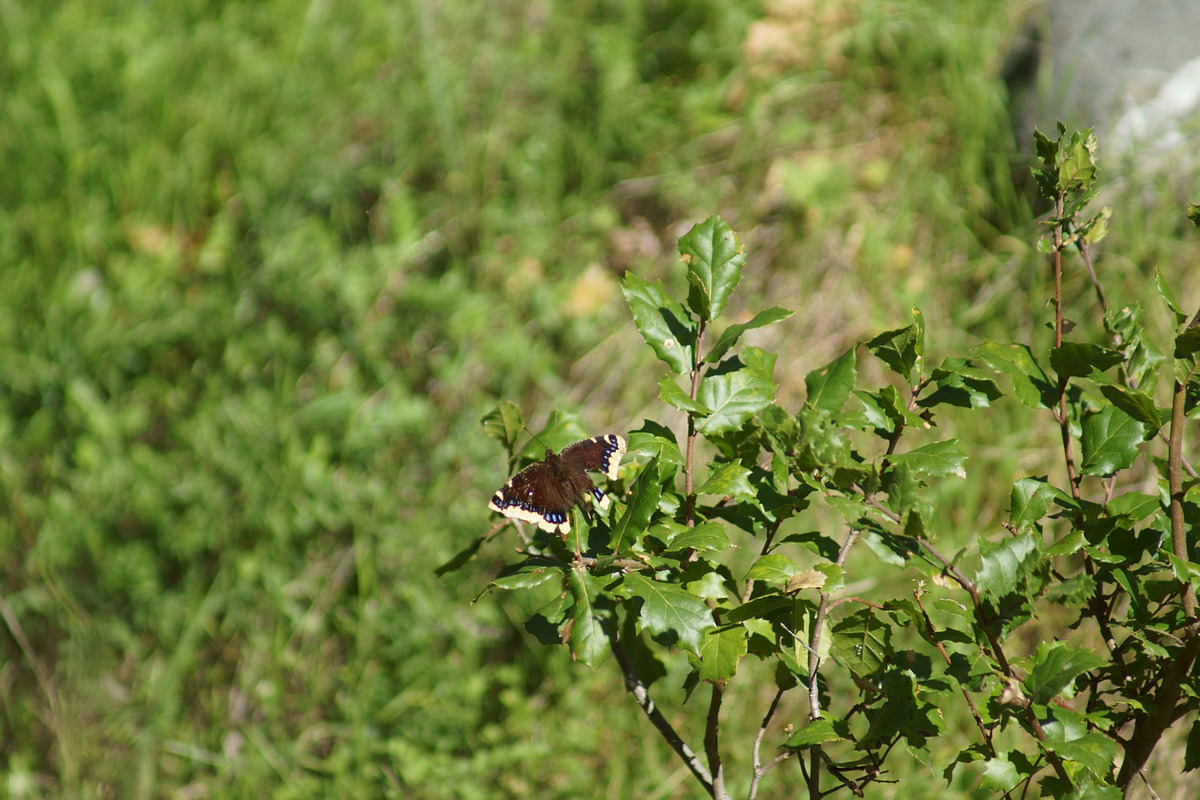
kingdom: Animalia
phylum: Arthropoda
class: Insecta
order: Lepidoptera
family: Nymphalidae
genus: Nymphalis
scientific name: Nymphalis antiopa
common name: Camberwell beauty
